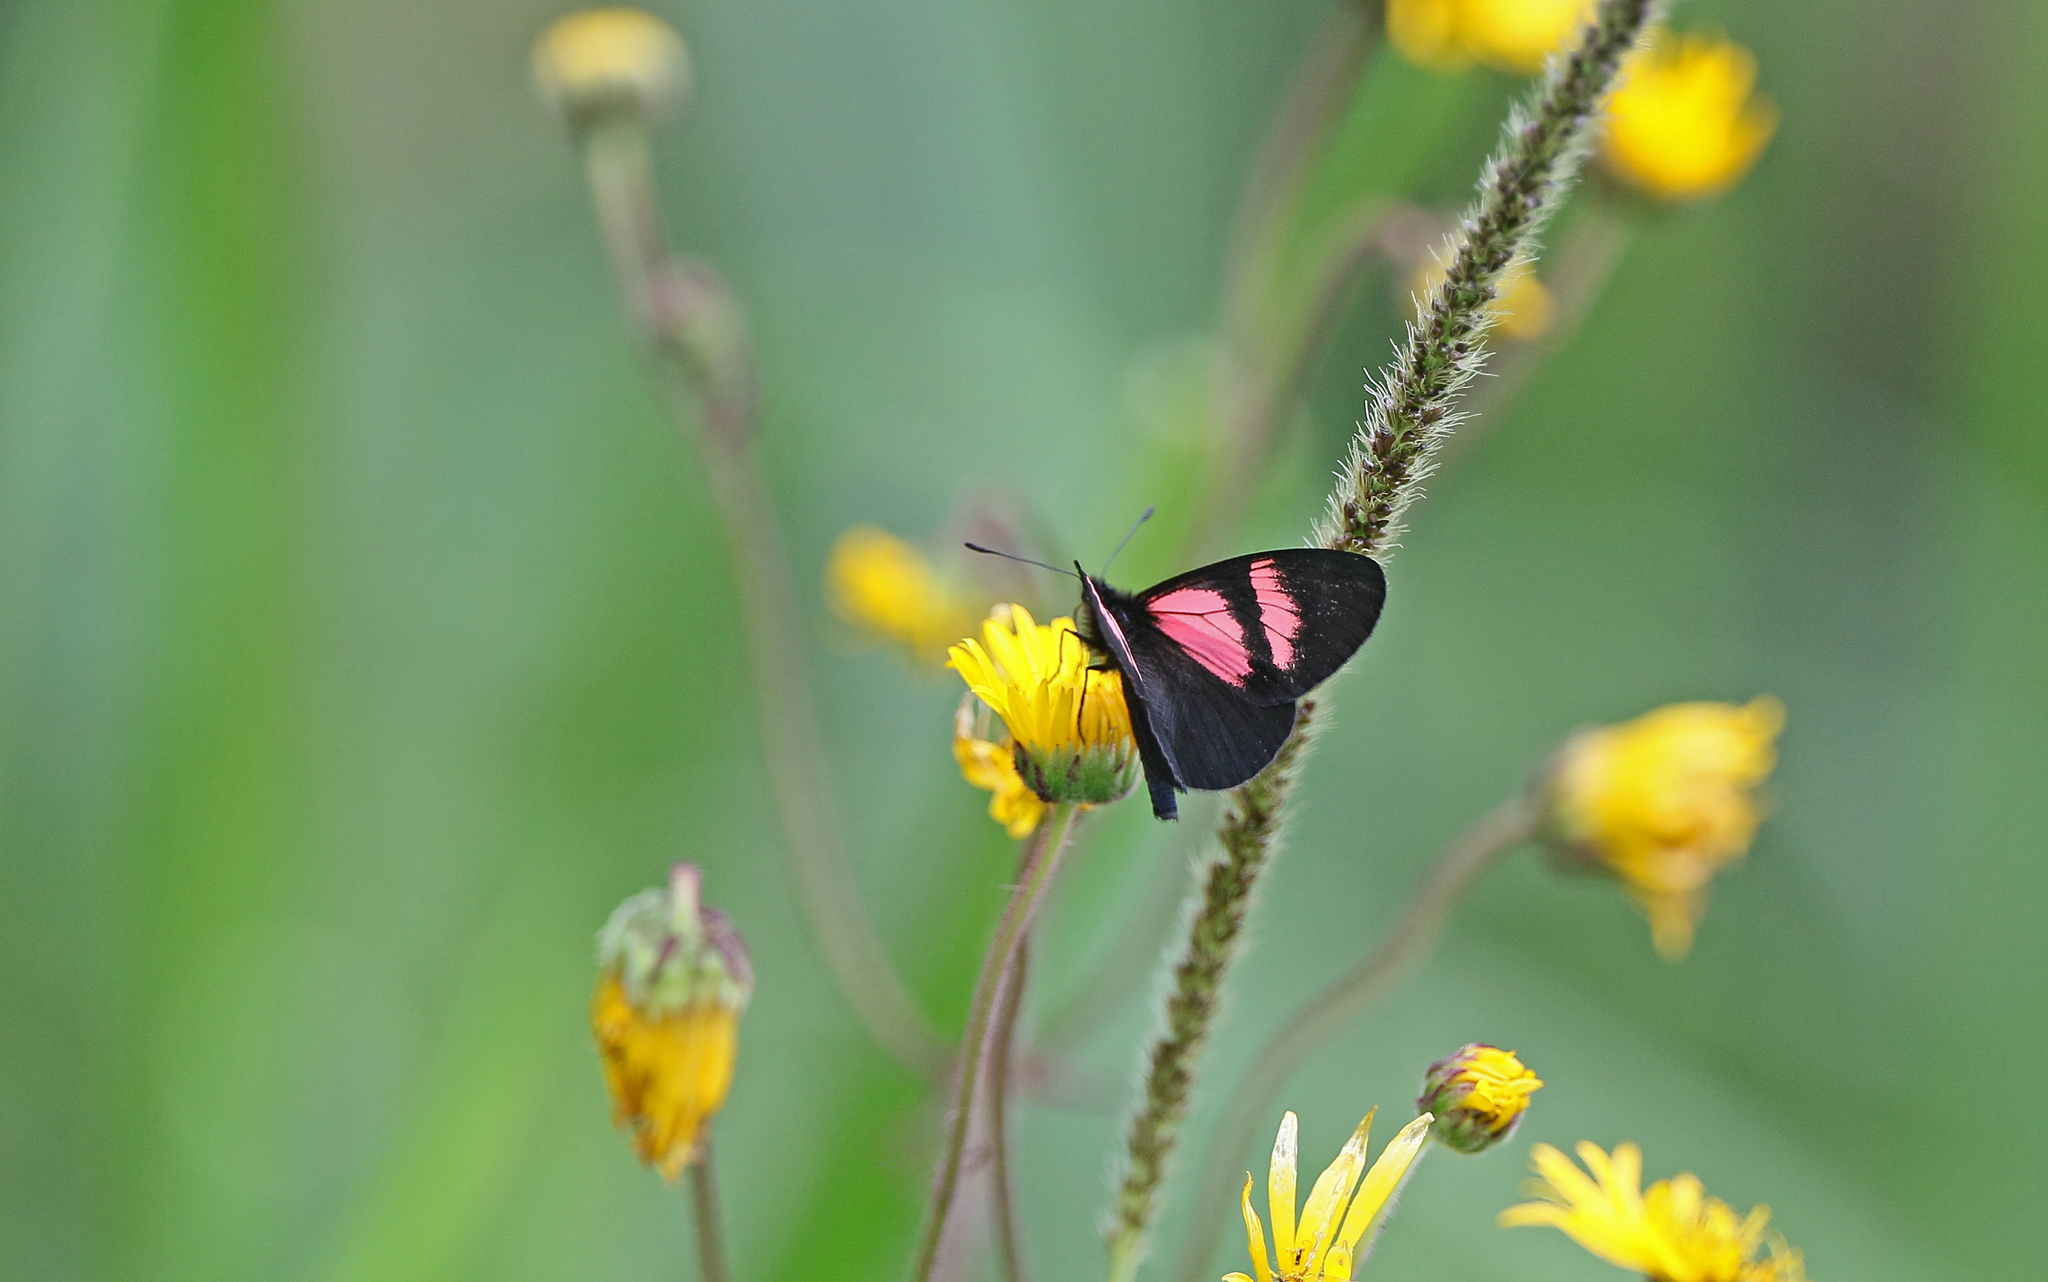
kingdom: Animalia
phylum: Arthropoda
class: Insecta
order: Lepidoptera
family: Nymphalidae
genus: Acraea
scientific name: Acraea Altinote dicaeus
